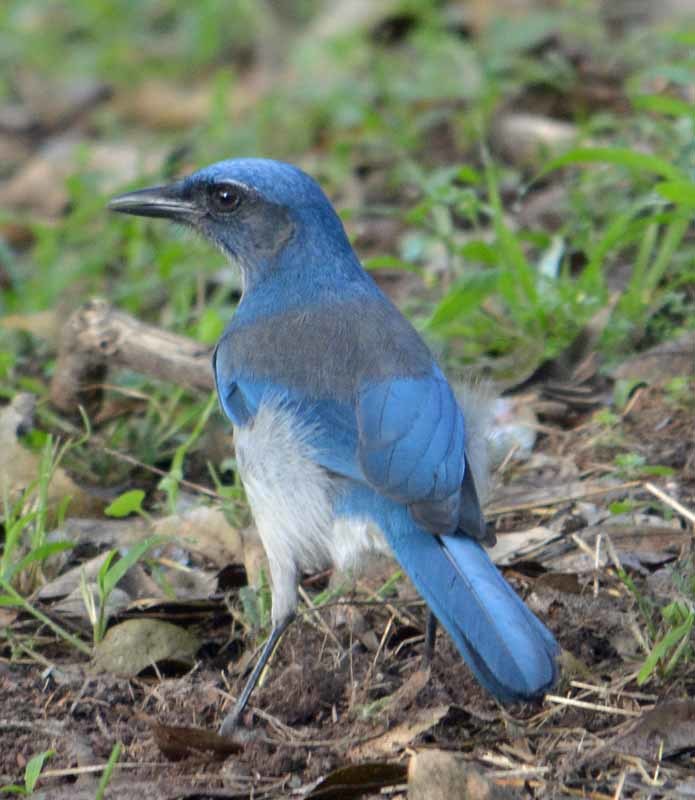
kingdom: Animalia
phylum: Chordata
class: Aves
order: Passeriformes
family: Corvidae
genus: Aphelocoma
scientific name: Aphelocoma woodhouseii
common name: Woodhouse's scrub-jay
